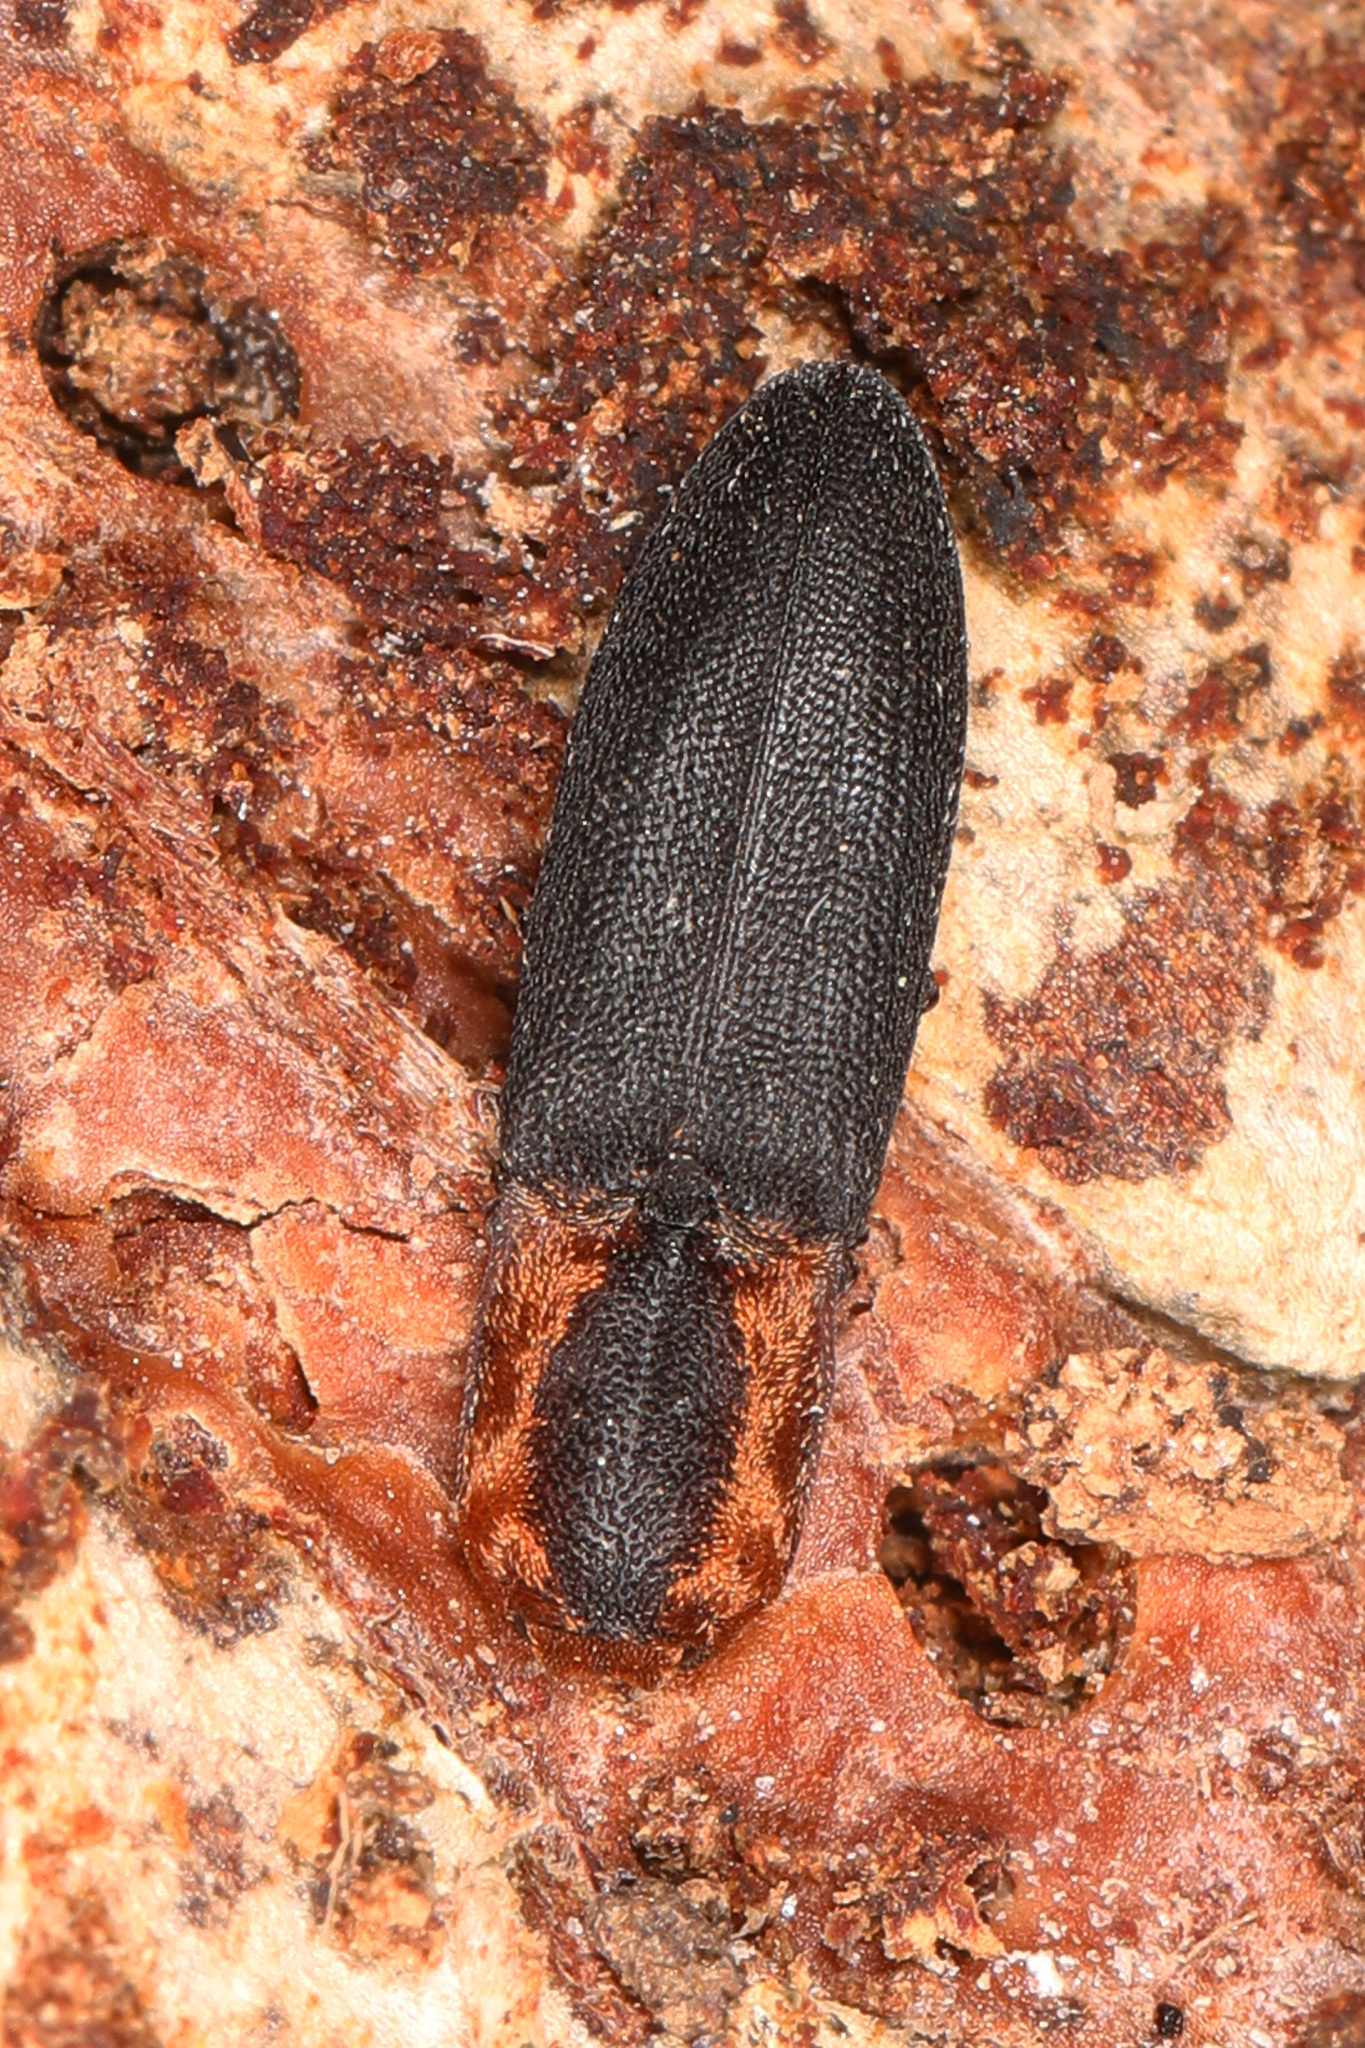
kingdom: Animalia
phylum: Arthropoda
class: Insecta
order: Coleoptera
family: Elateridae
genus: Lacon
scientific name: Lacon discoideus
